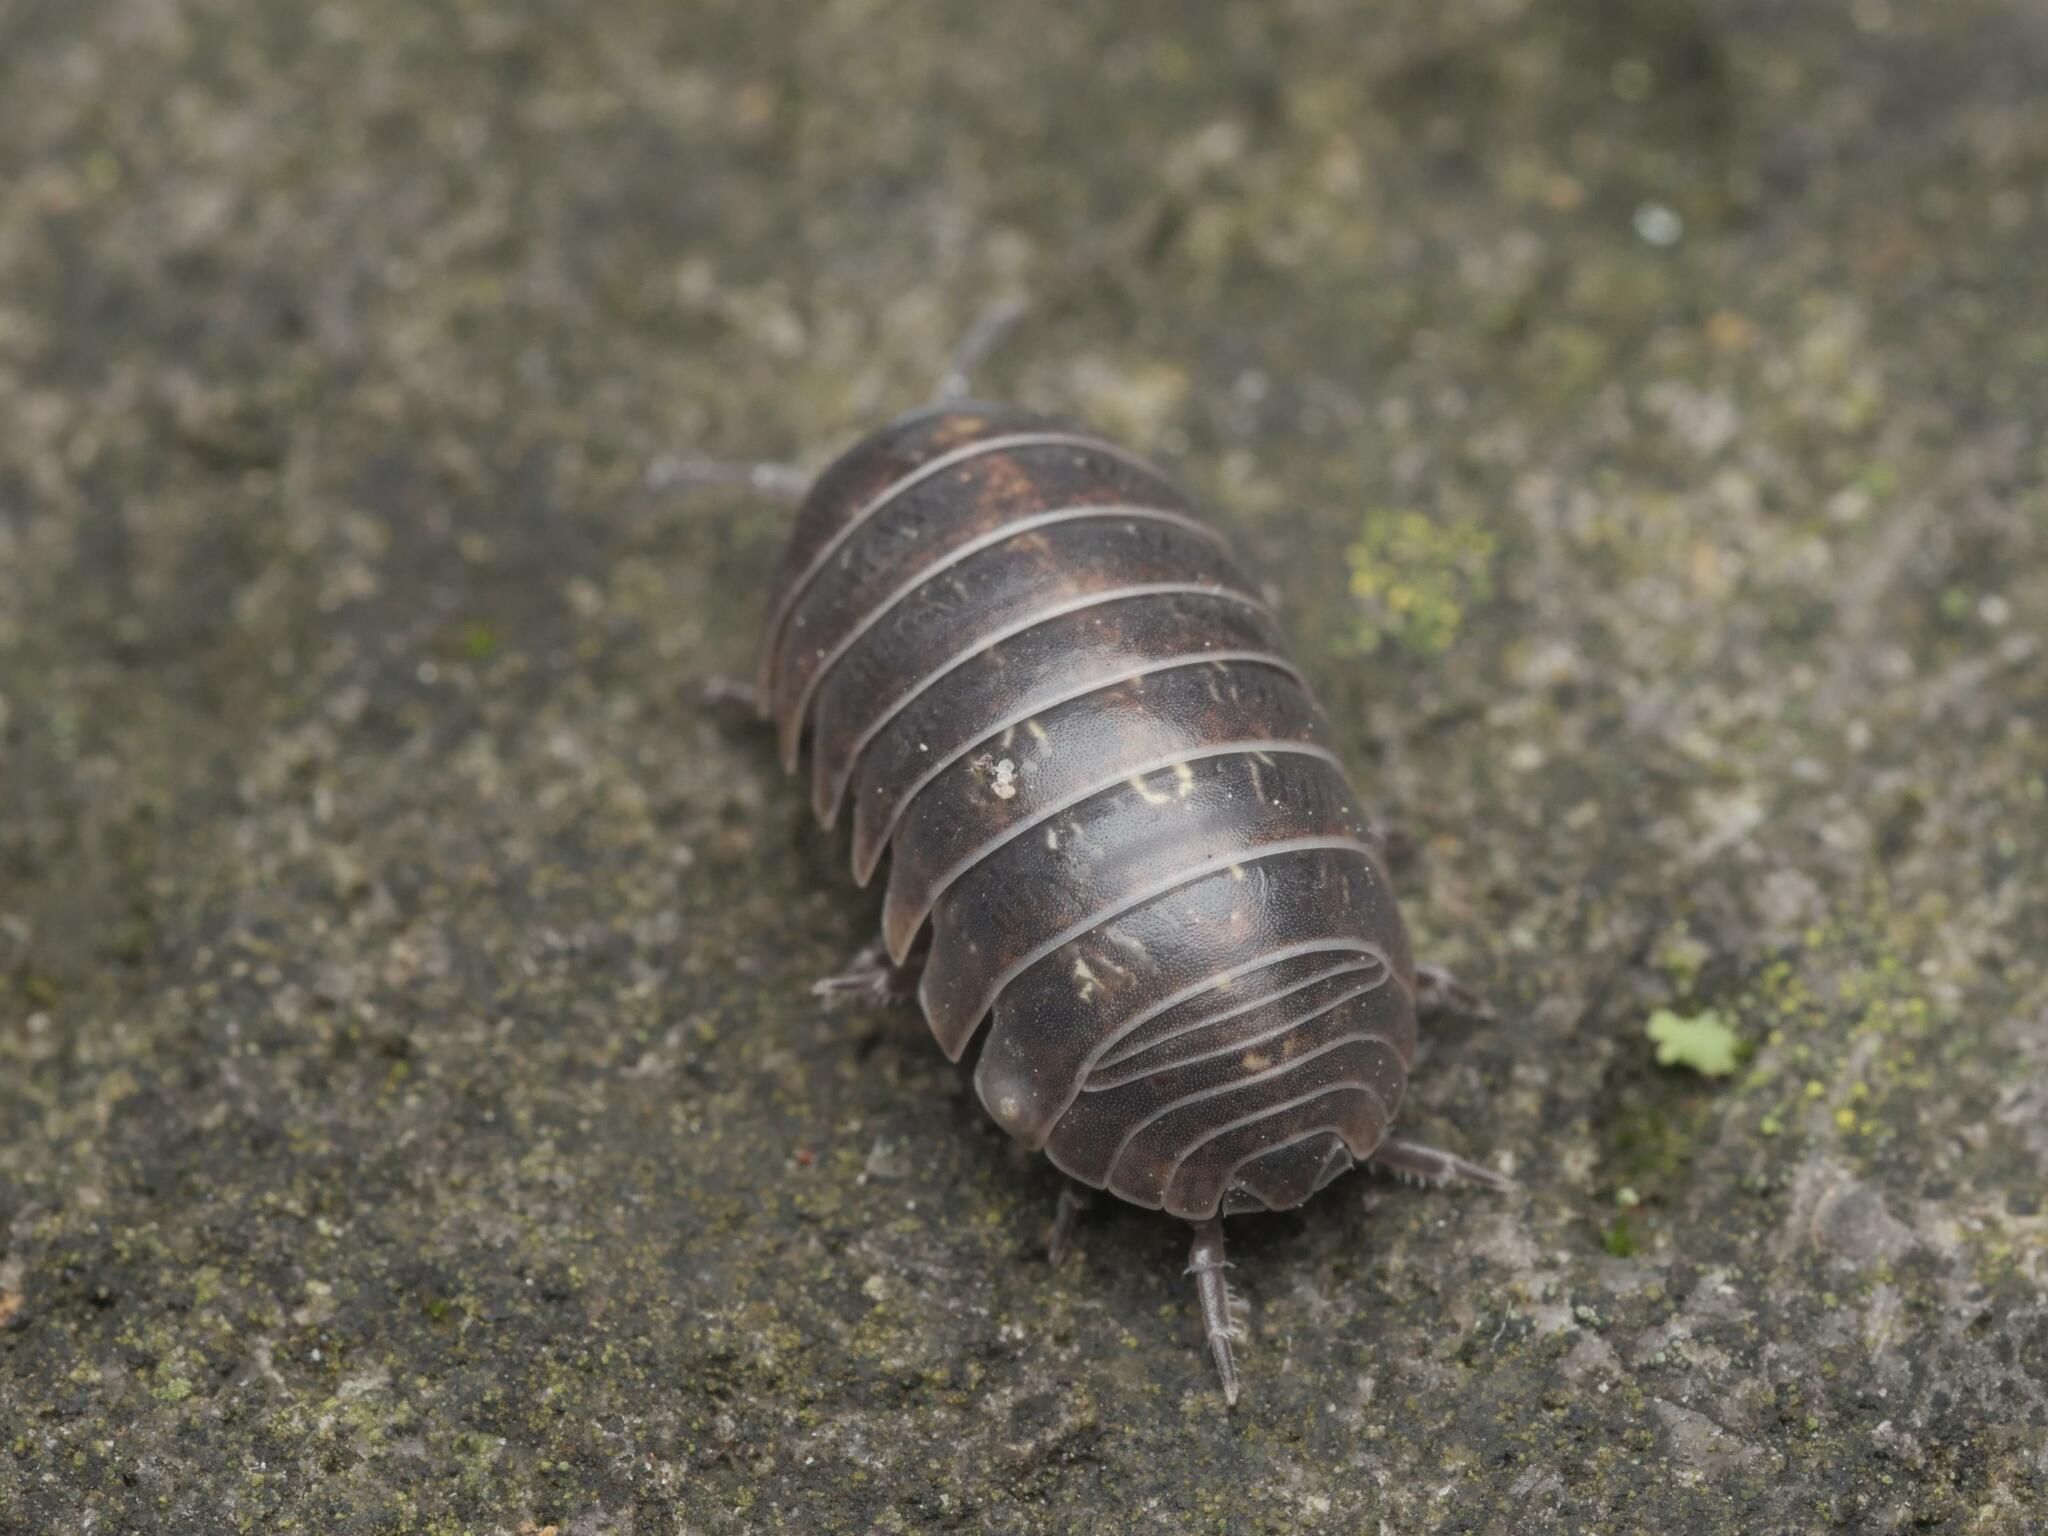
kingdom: Animalia
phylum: Arthropoda
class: Malacostraca
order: Isopoda
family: Armadillidiidae
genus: Armadillidium
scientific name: Armadillidium vulgare
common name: Common pill woodlouse
